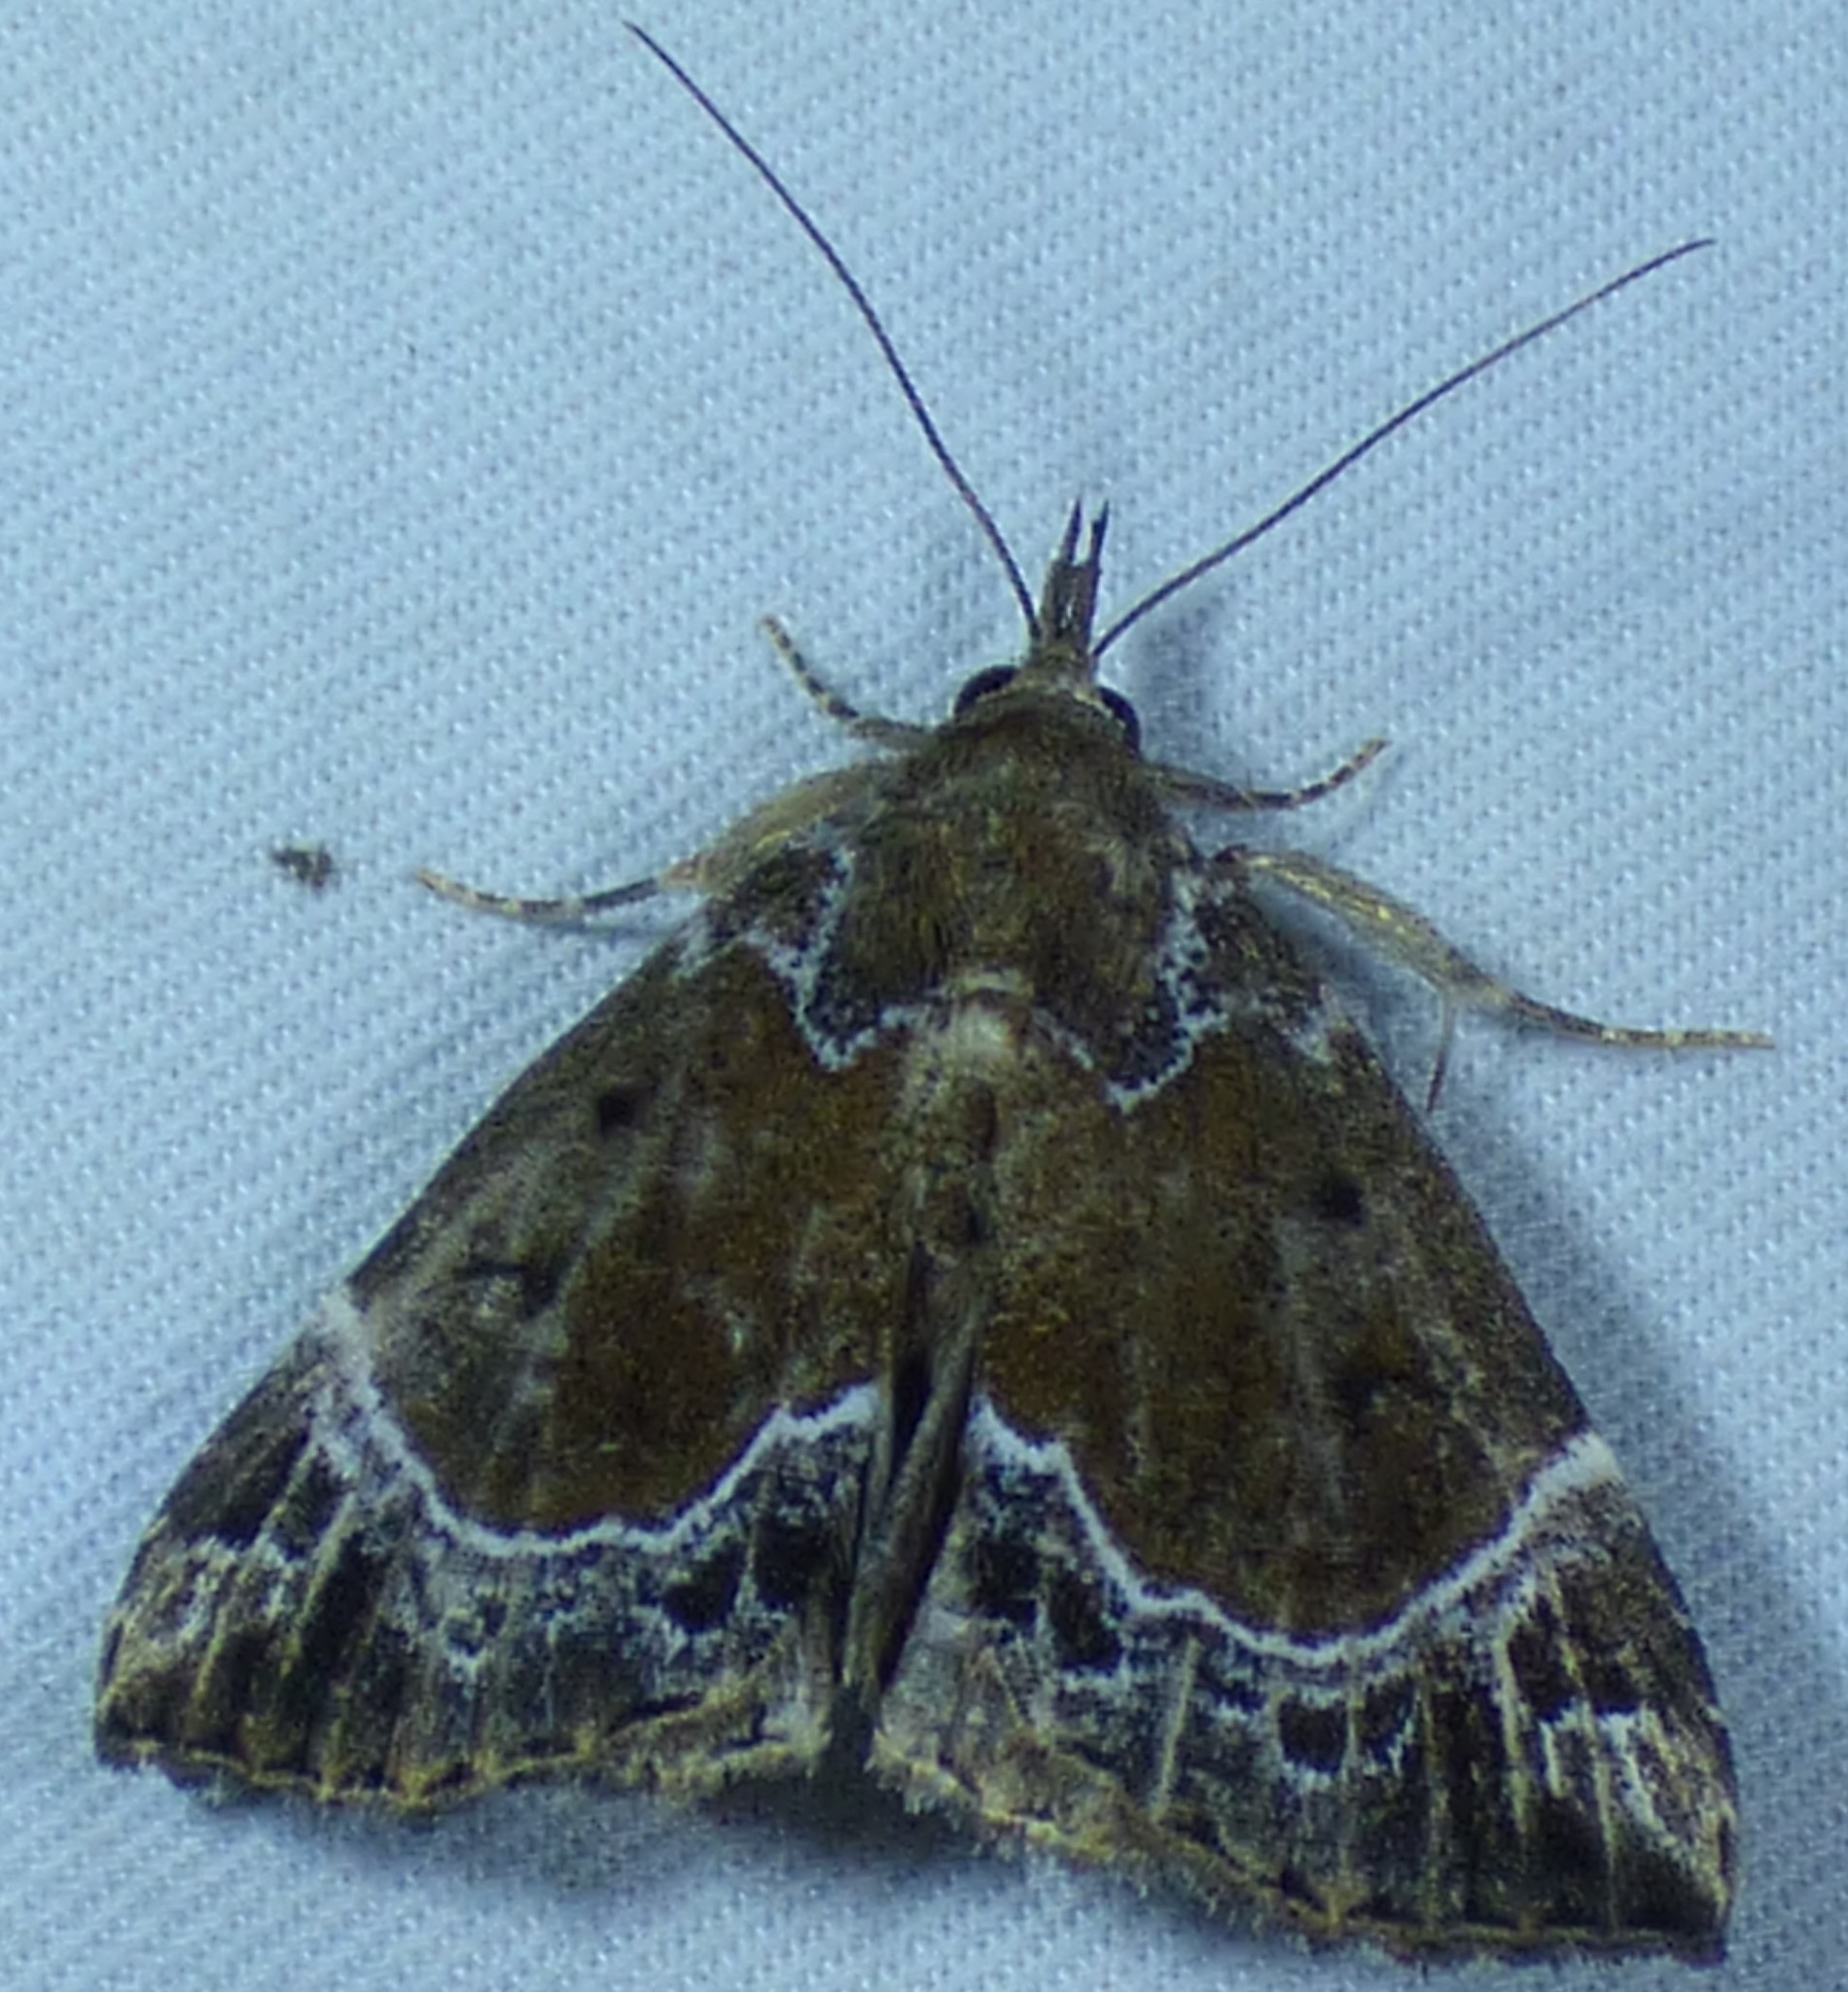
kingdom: Animalia
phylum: Arthropoda
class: Insecta
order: Lepidoptera
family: Erebidae
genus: Hypena
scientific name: Hypena abalienalis
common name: White-lined snout
